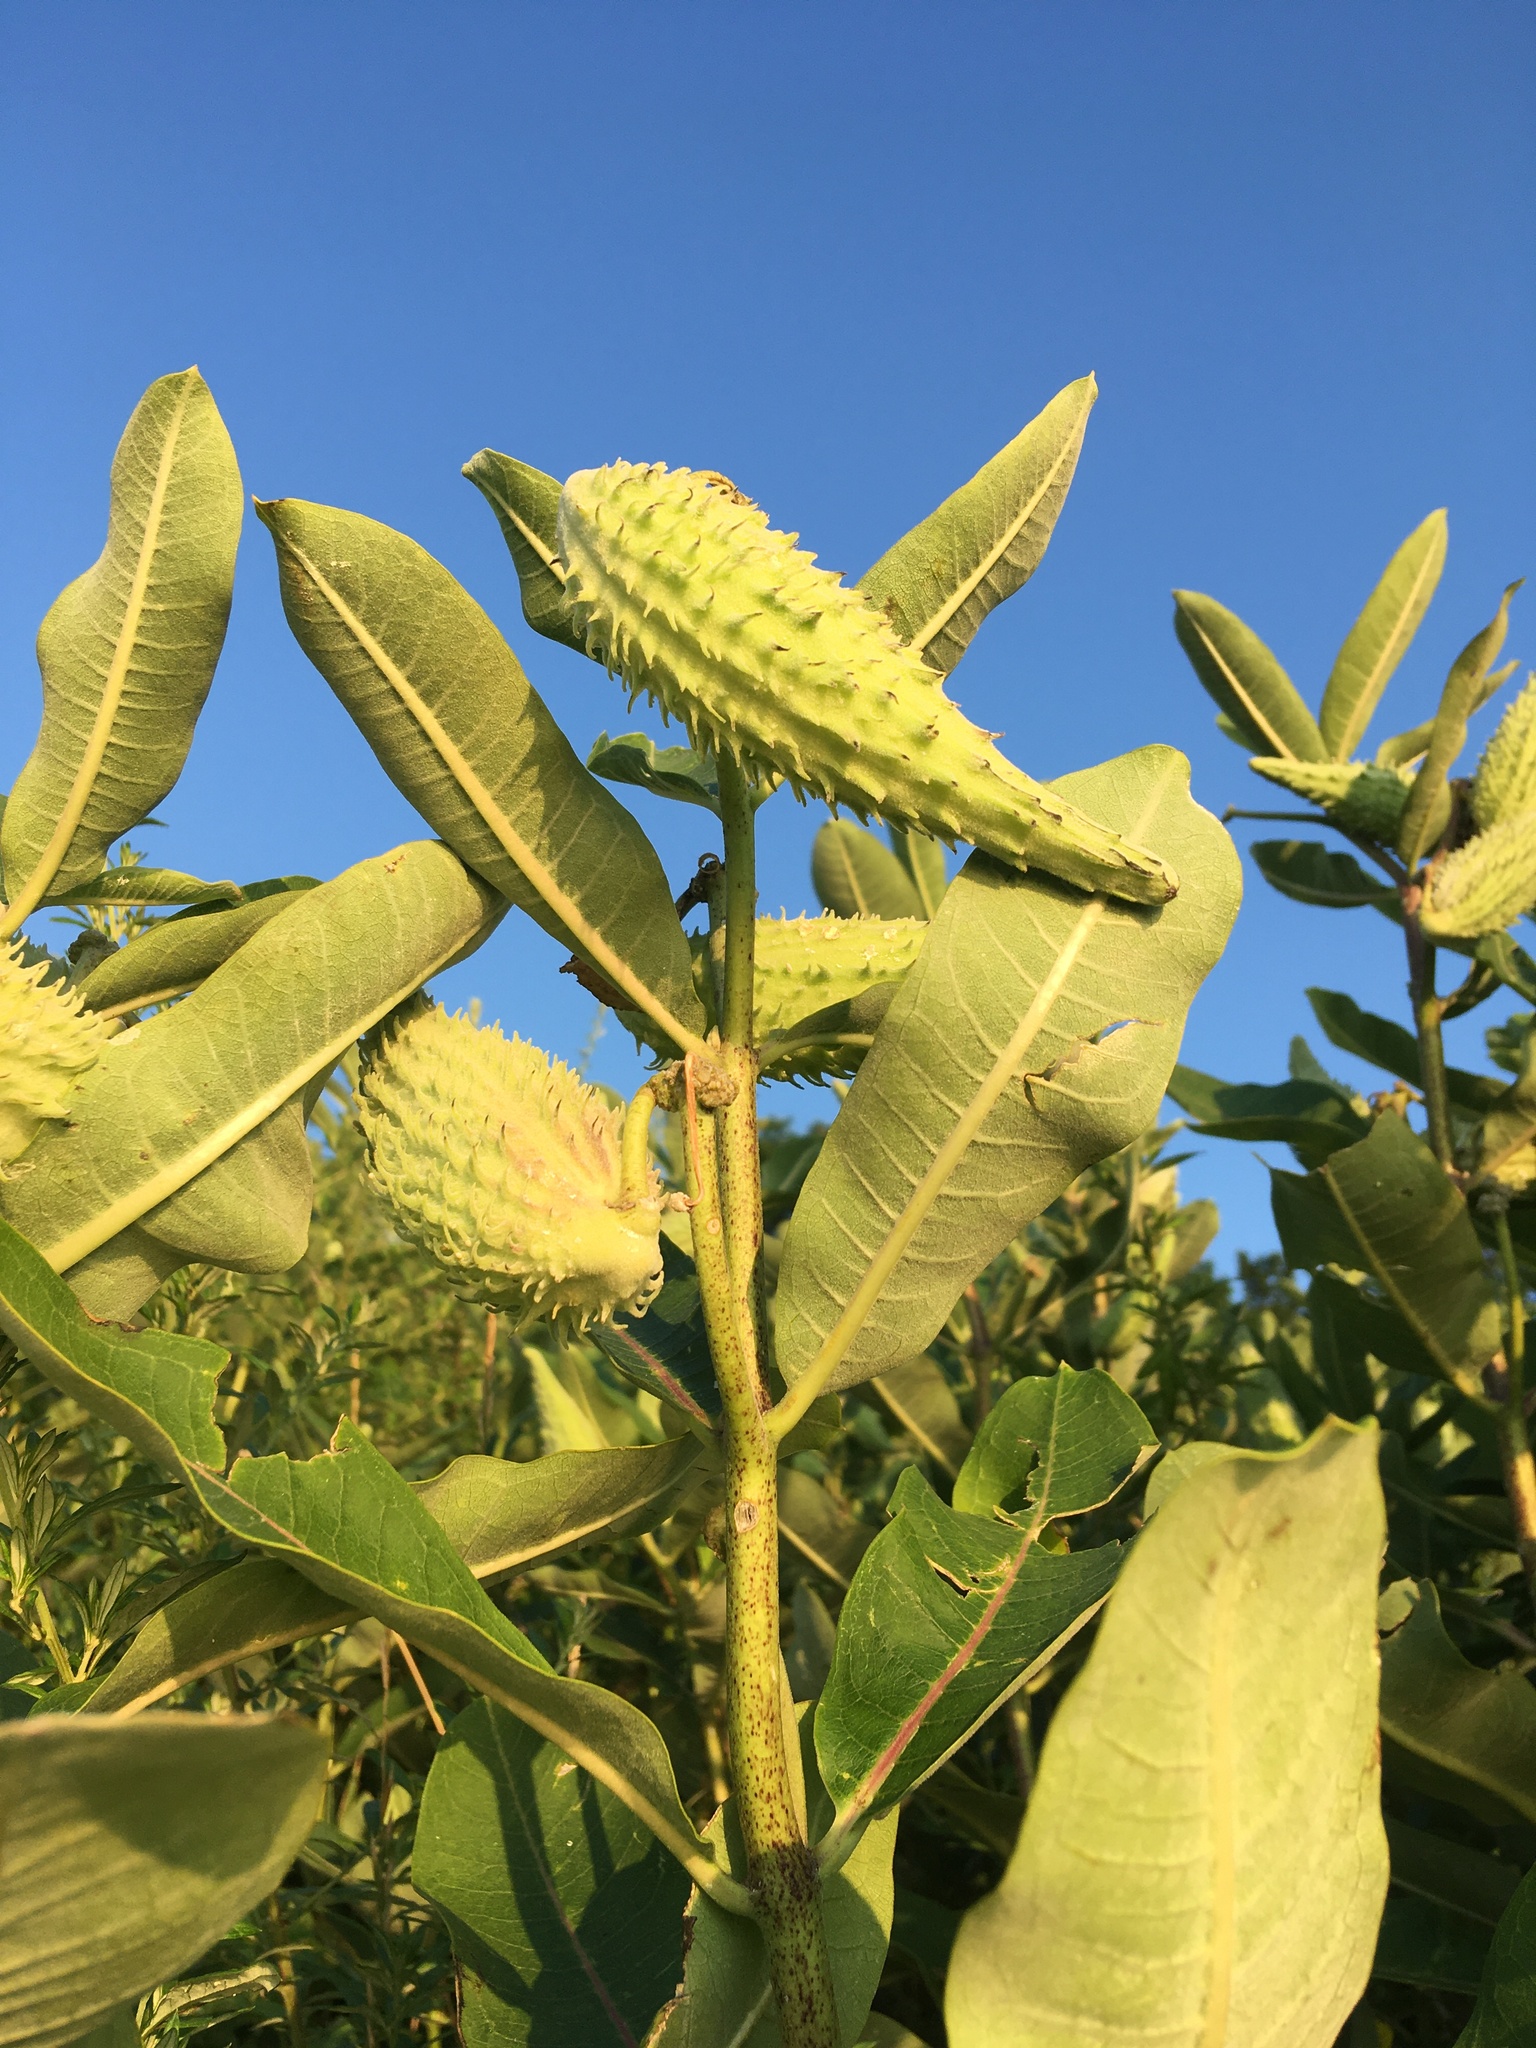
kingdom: Plantae
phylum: Tracheophyta
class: Magnoliopsida
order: Gentianales
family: Apocynaceae
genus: Asclepias
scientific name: Asclepias syriaca
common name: Common milkweed
